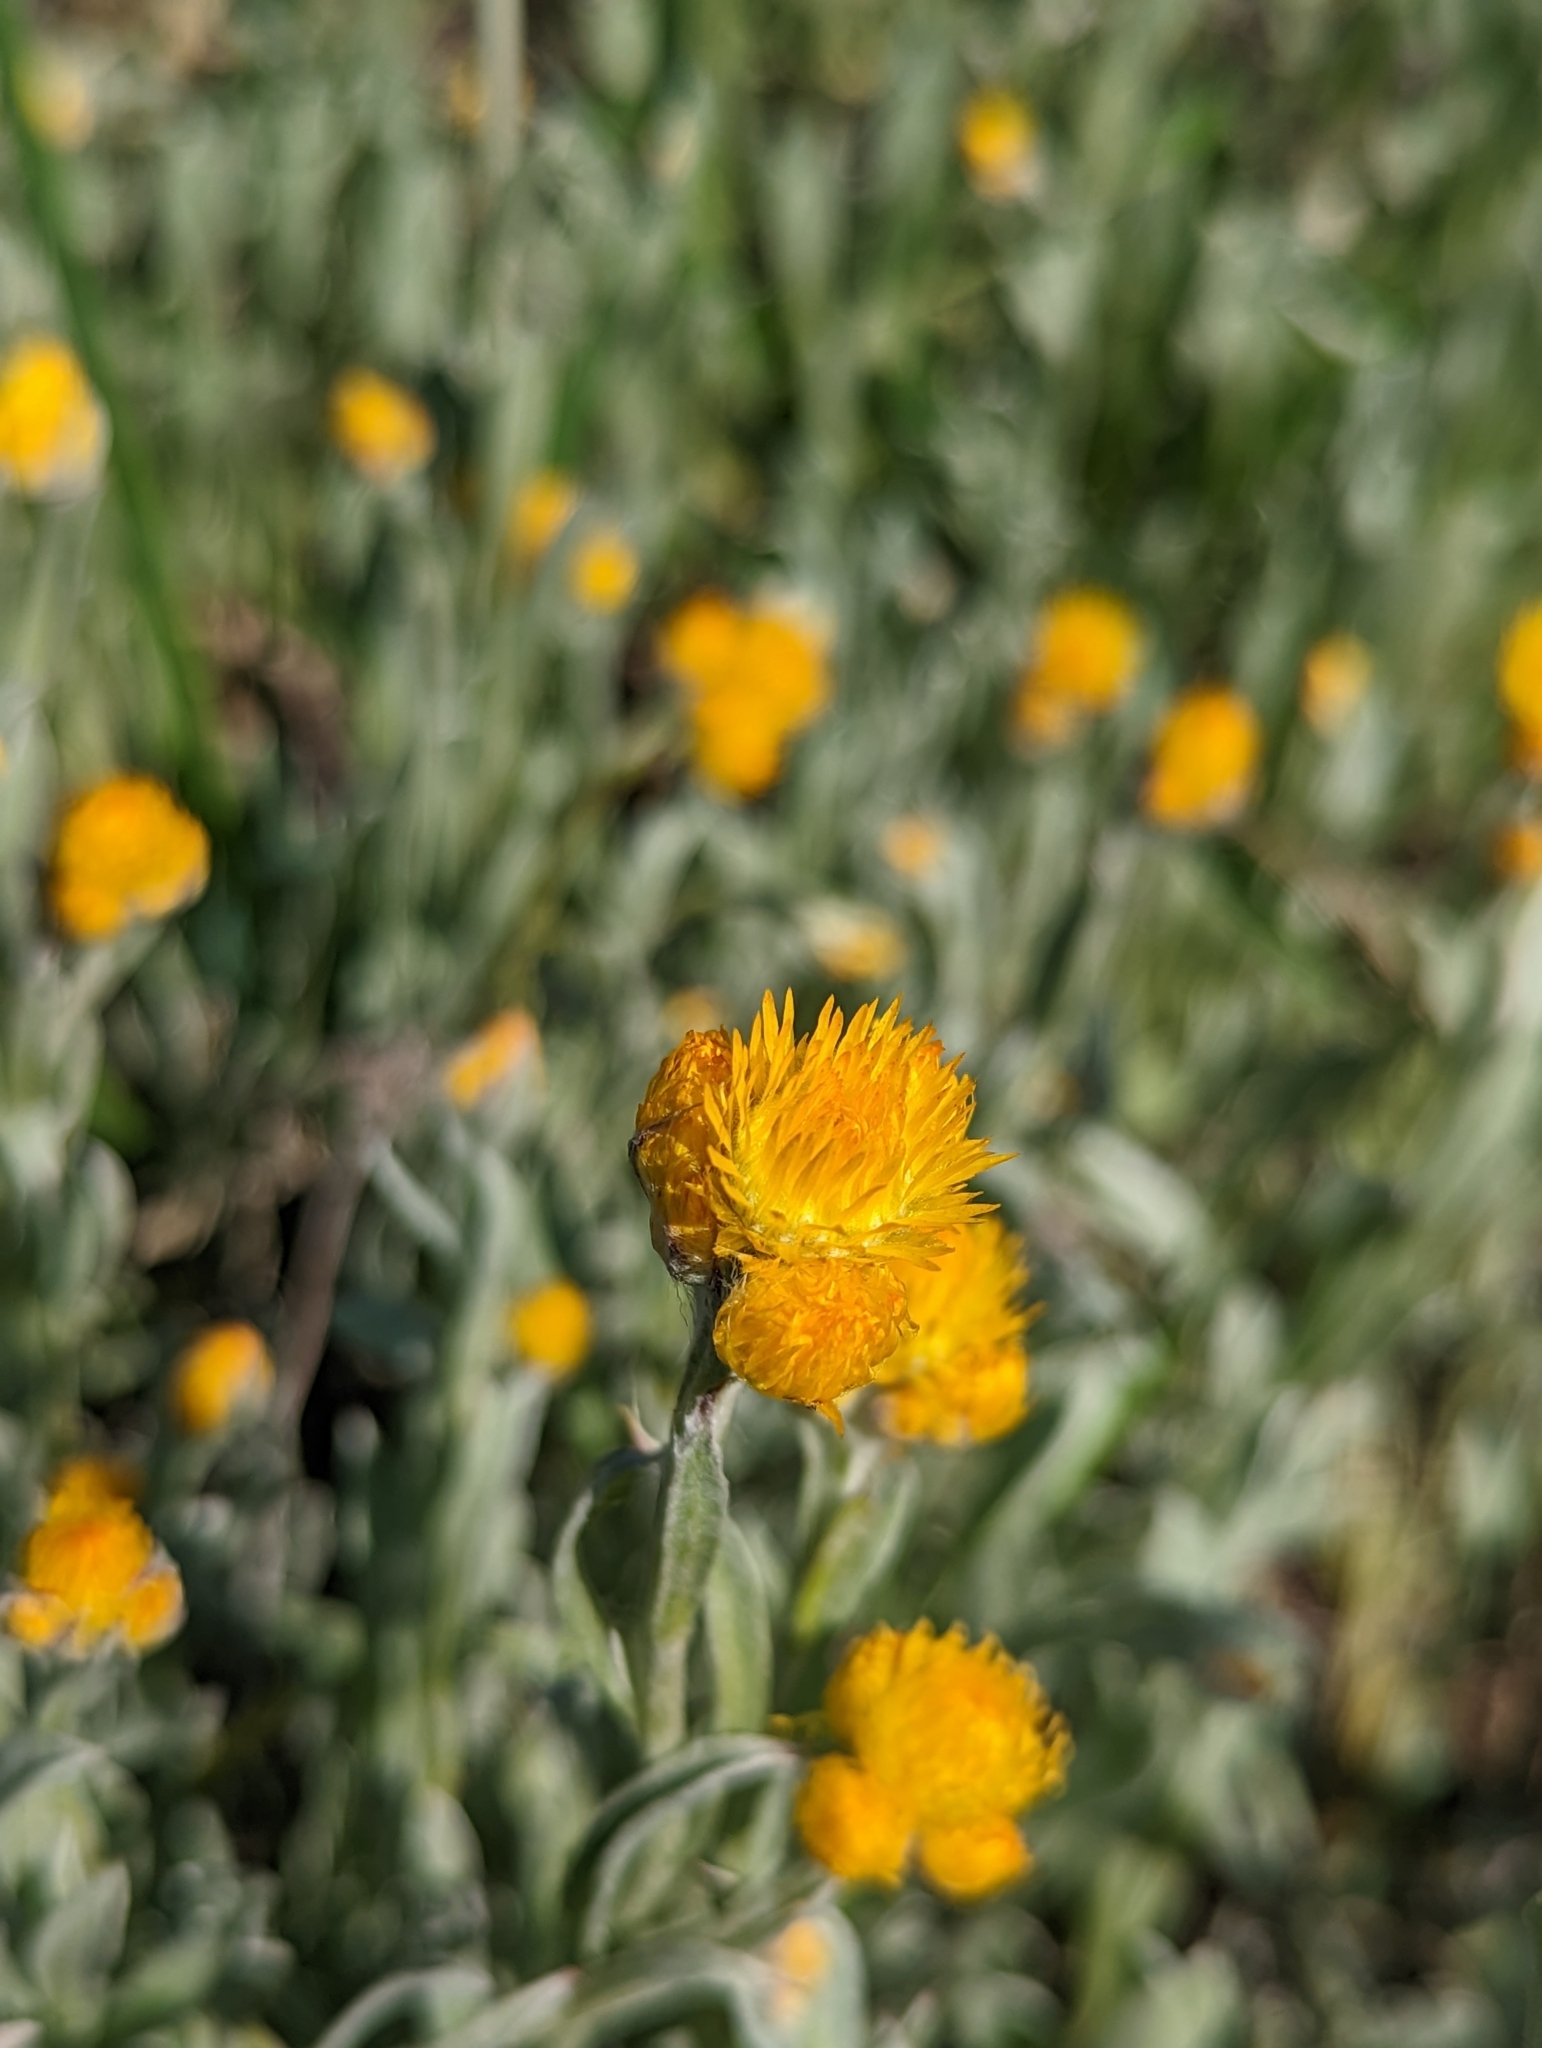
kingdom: Plantae
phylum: Tracheophyta
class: Magnoliopsida
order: Asterales
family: Asteraceae
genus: Chrysocephalum
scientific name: Chrysocephalum apiculatum
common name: Common everlasting
